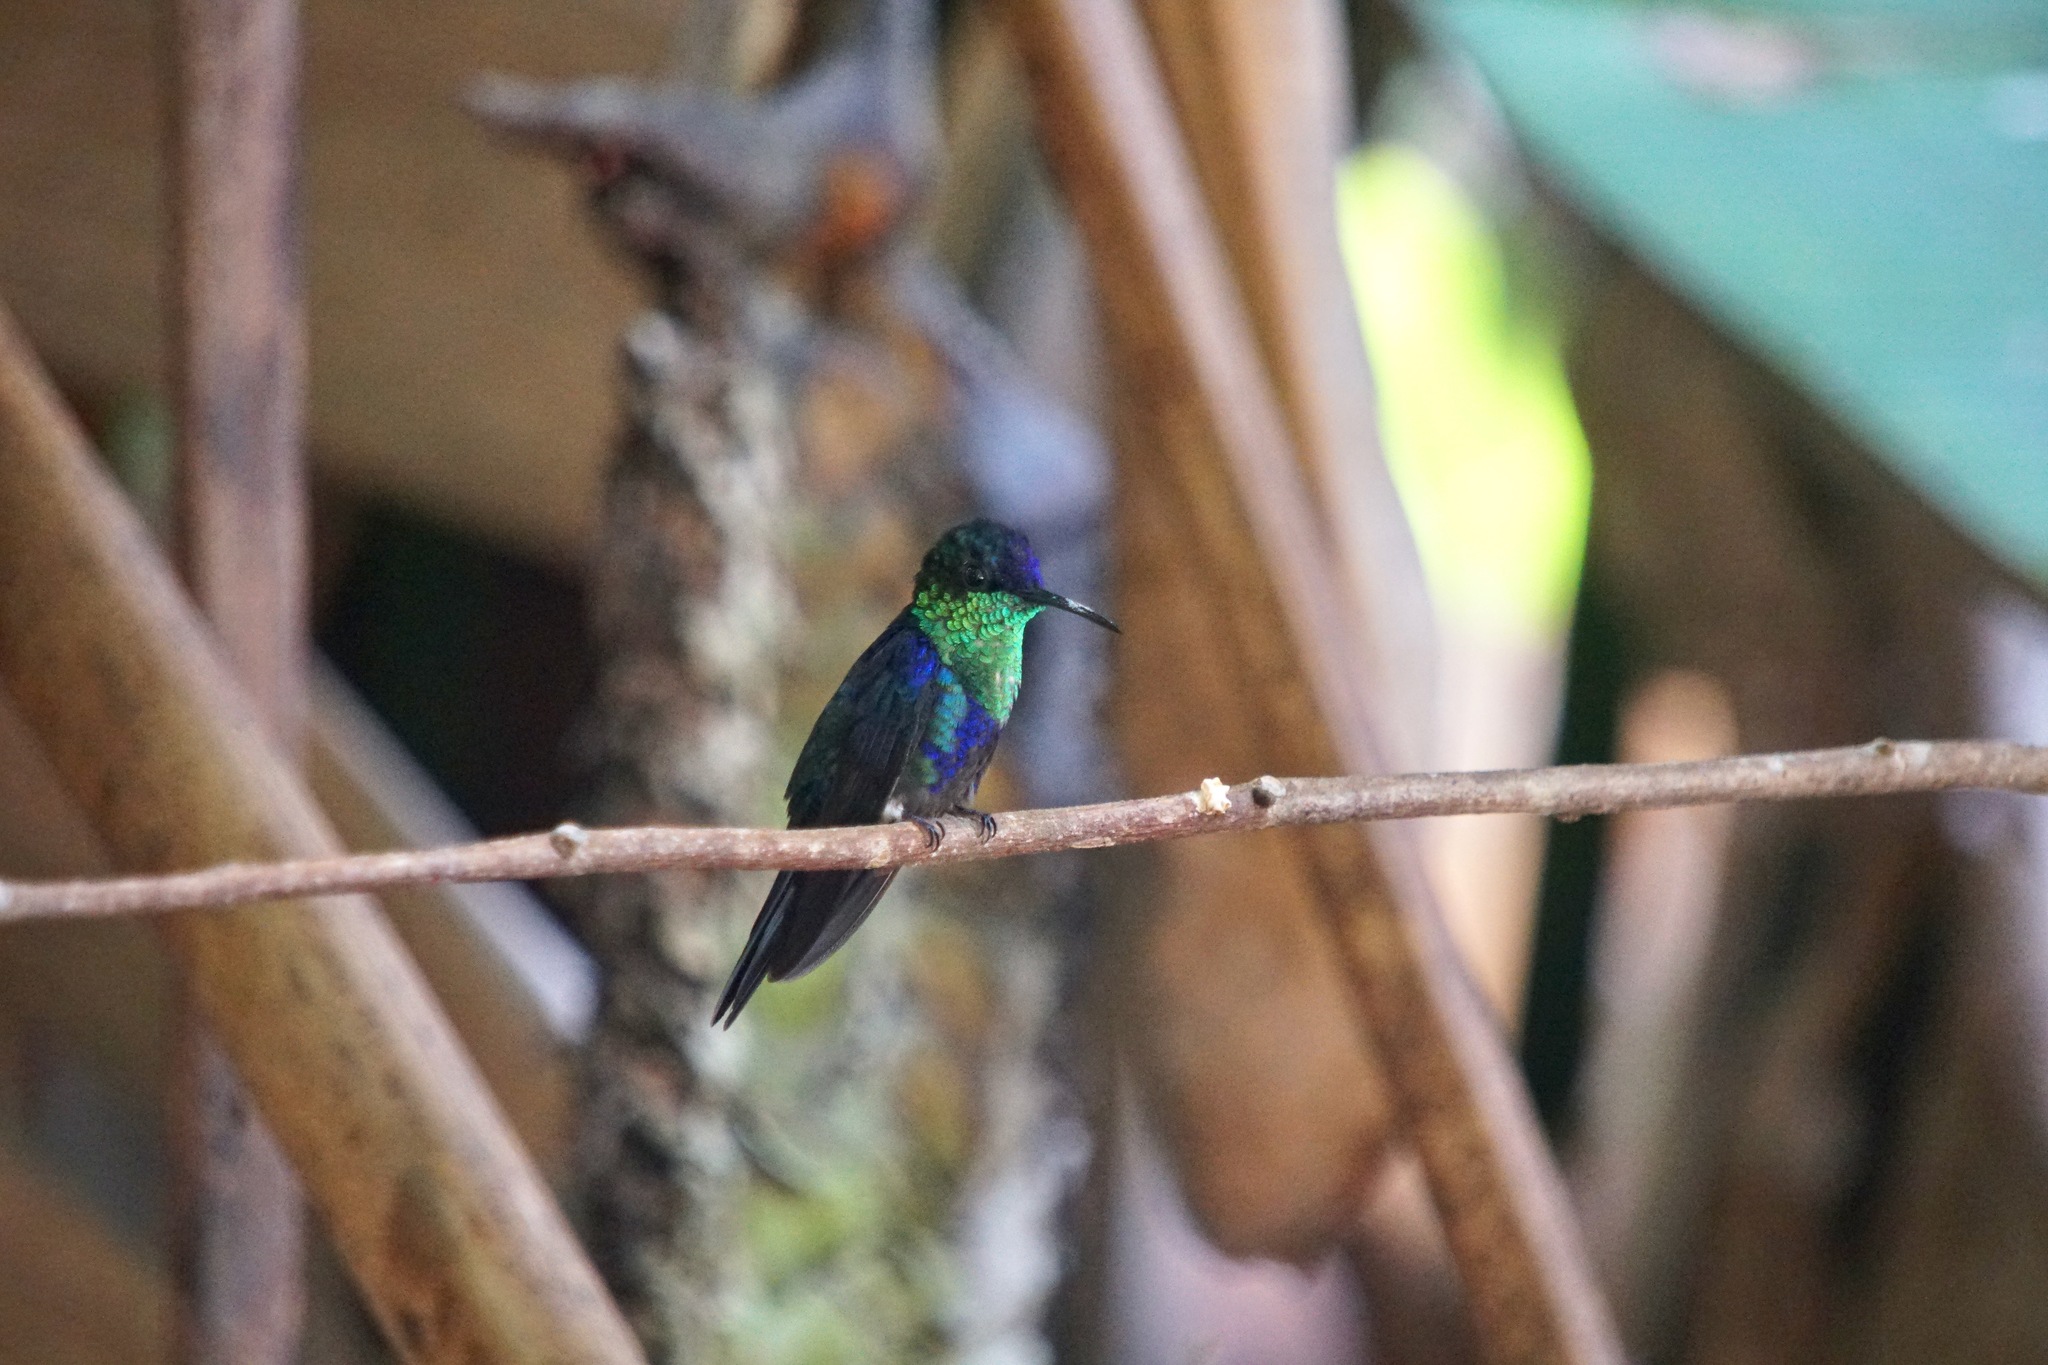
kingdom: Animalia
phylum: Chordata
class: Aves
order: Apodiformes
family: Trochilidae
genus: Thalurania
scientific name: Thalurania colombica
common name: Crowned woodnymph
